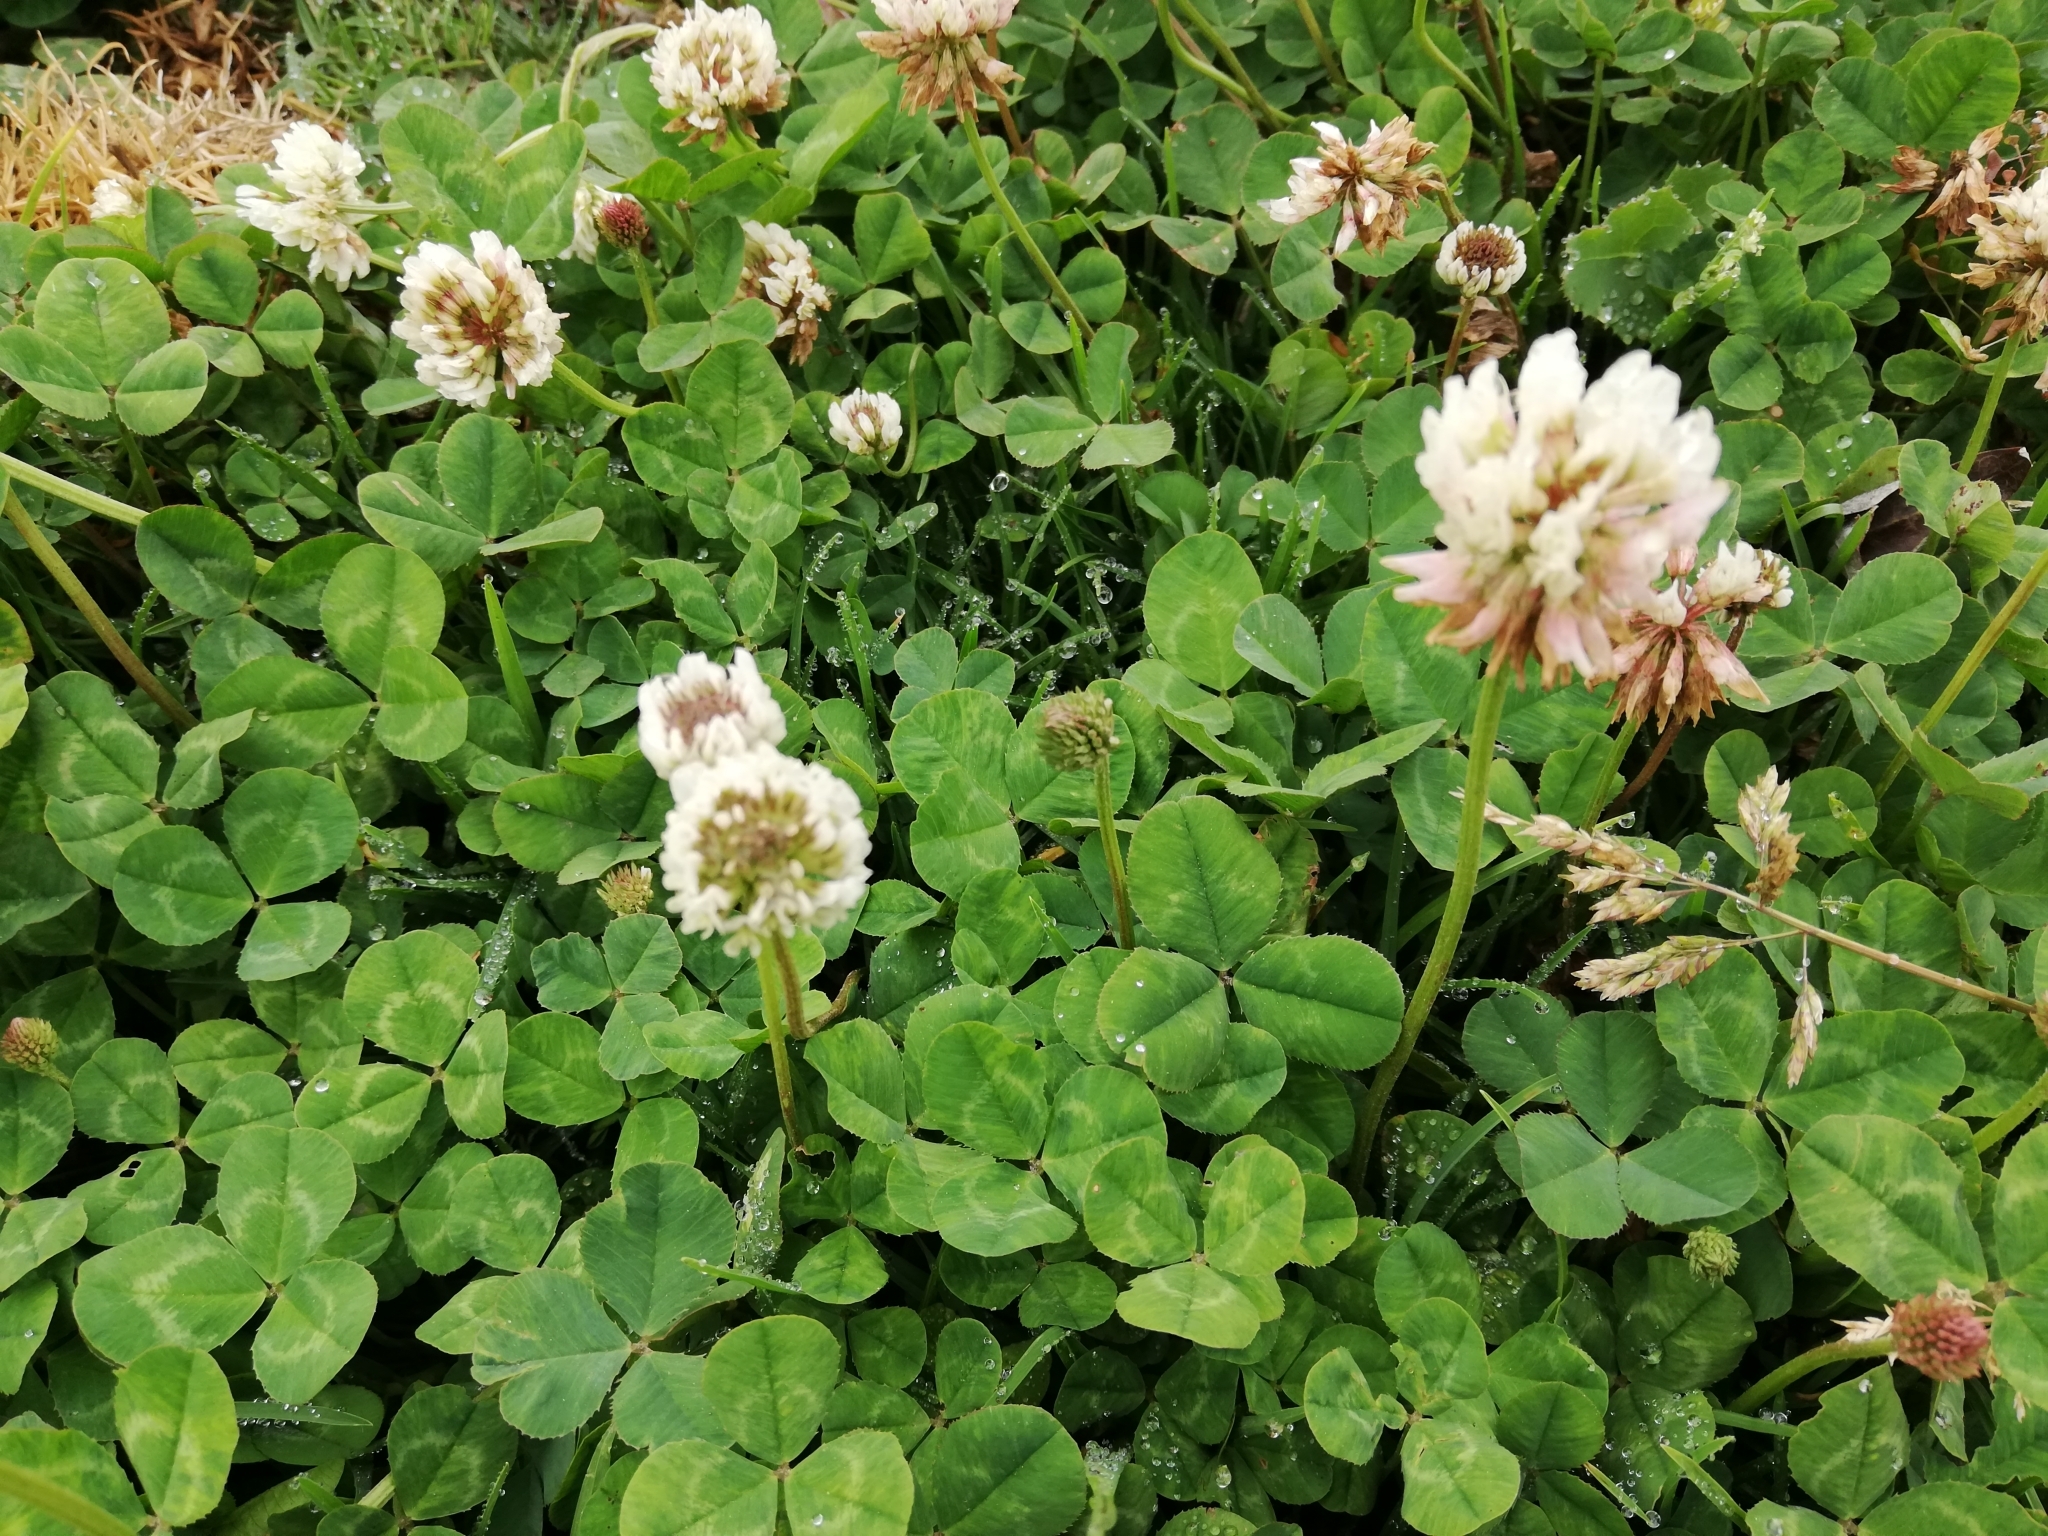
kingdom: Plantae
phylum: Tracheophyta
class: Magnoliopsida
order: Fabales
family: Fabaceae
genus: Trifolium
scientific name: Trifolium repens
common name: White clover
